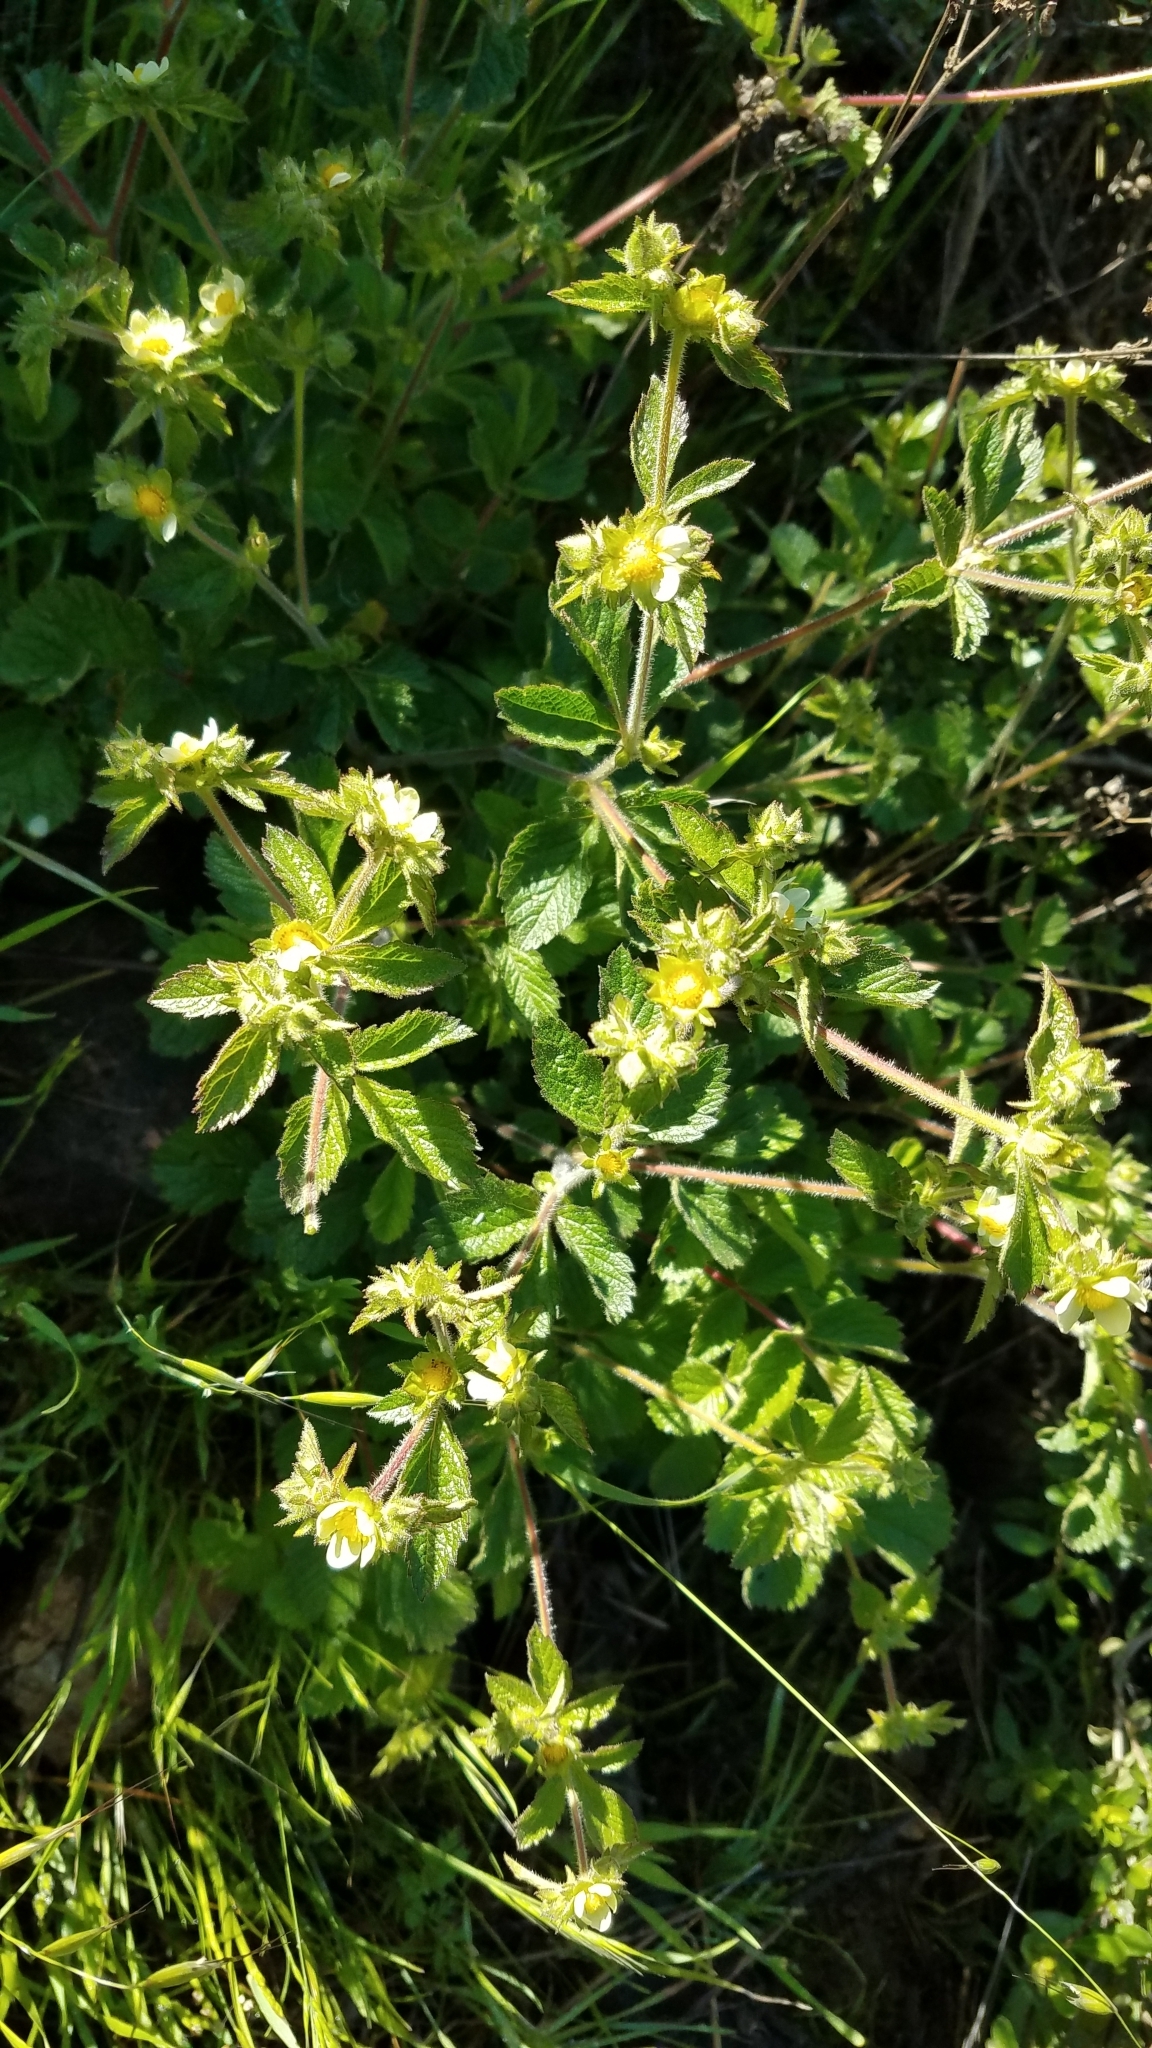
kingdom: Plantae
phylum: Tracheophyta
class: Magnoliopsida
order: Rosales
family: Rosaceae
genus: Drymocallis
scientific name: Drymocallis glandulosa
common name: Sticky cinquefoil
